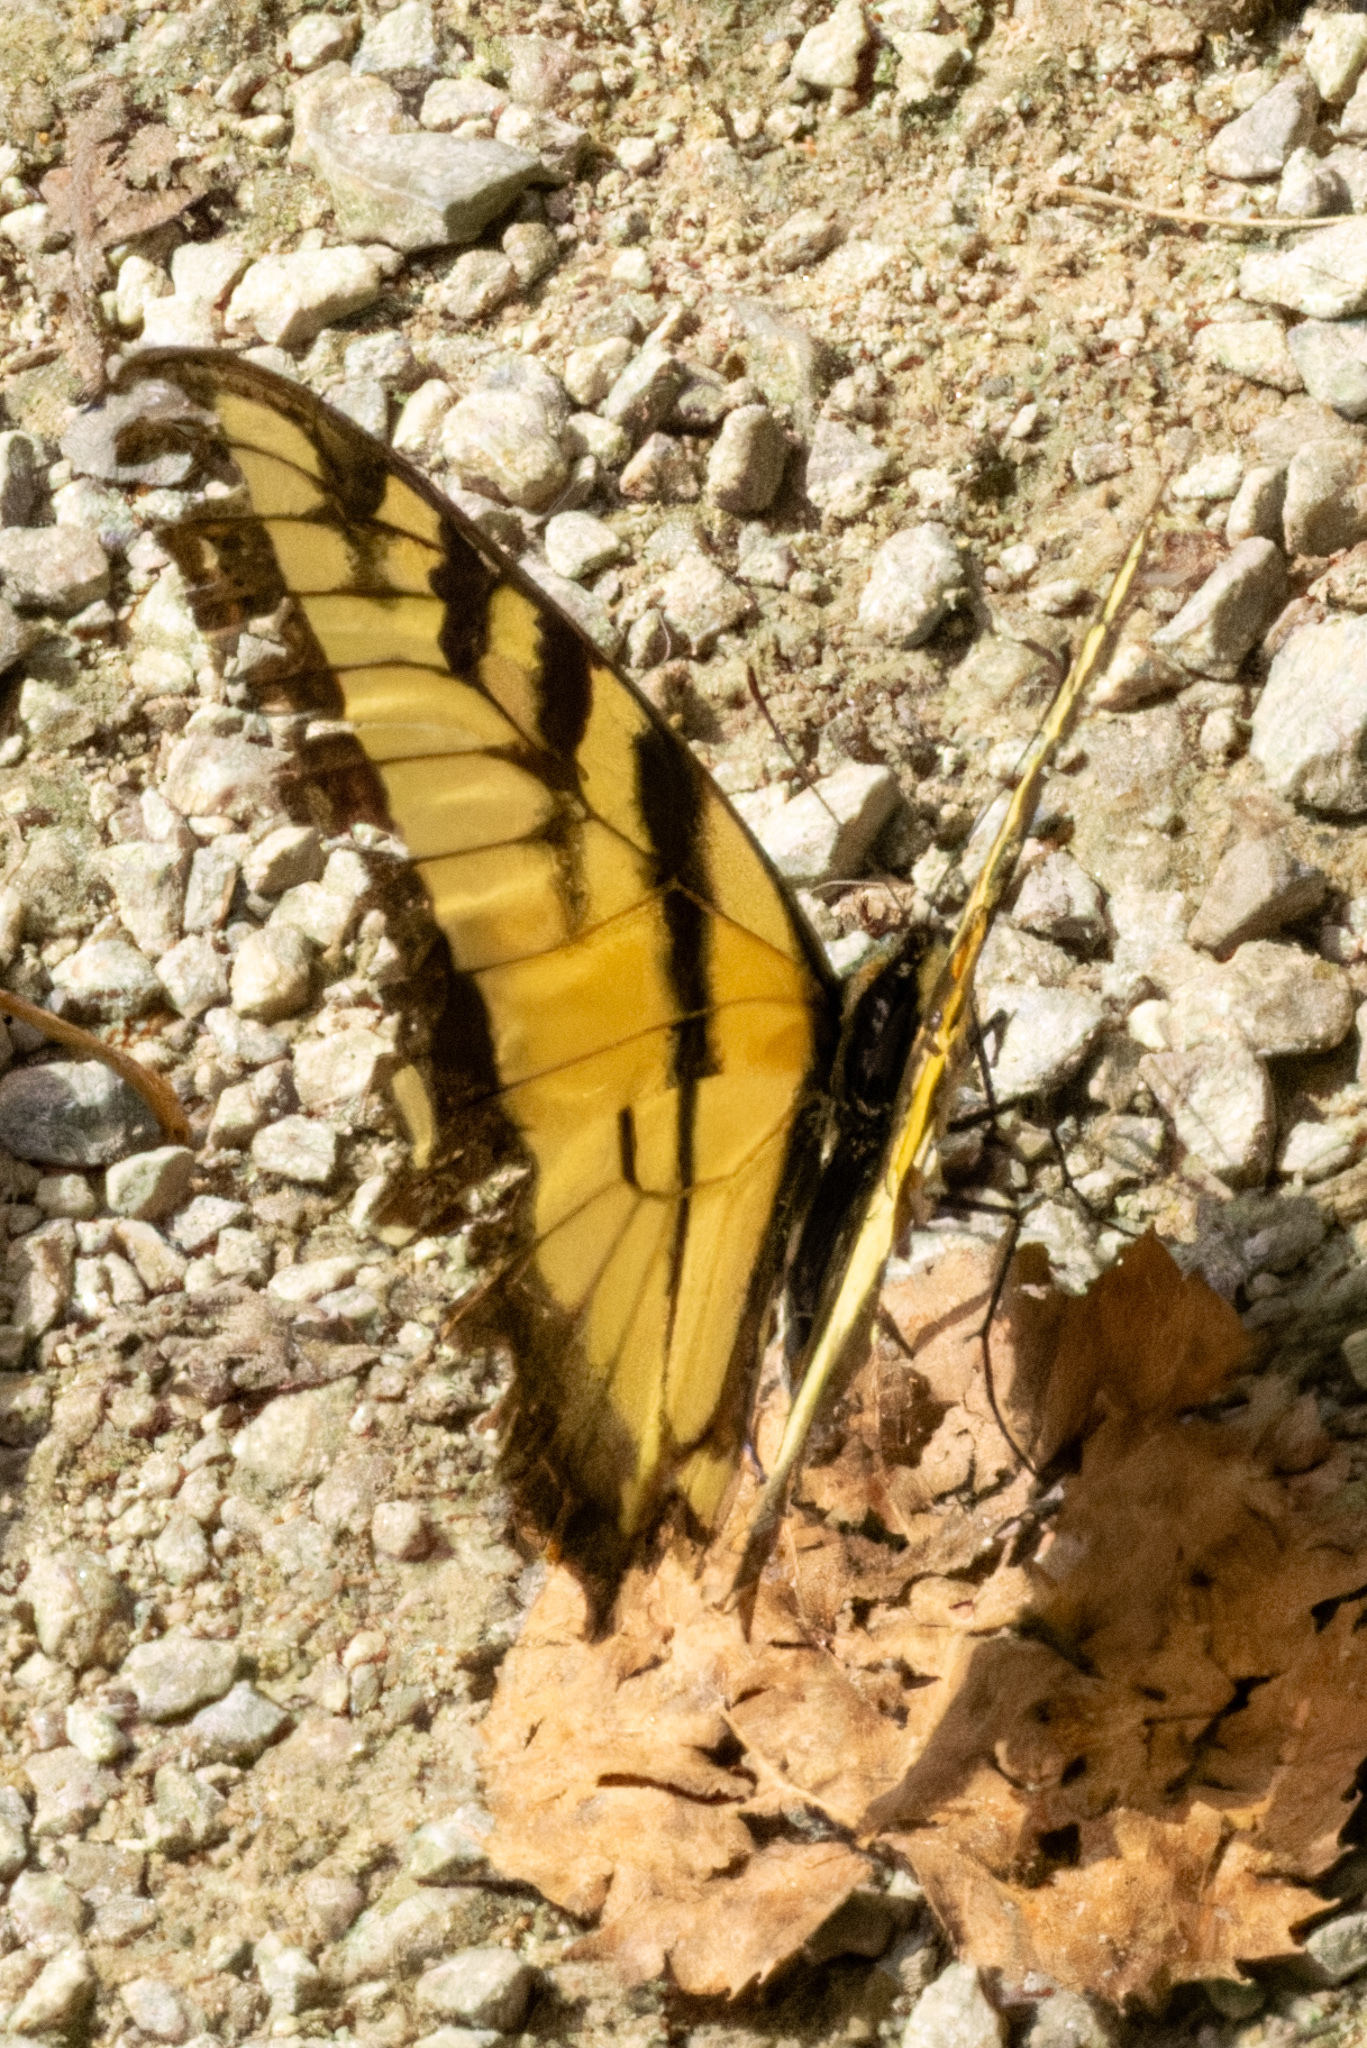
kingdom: Animalia
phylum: Arthropoda
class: Insecta
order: Lepidoptera
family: Papilionidae
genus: Papilio
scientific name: Papilio glaucus
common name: Tiger swallowtail
